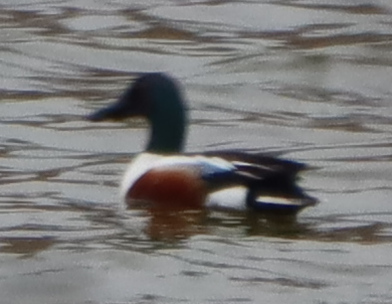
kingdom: Animalia
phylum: Chordata
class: Aves
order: Anseriformes
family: Anatidae
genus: Spatula
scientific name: Spatula clypeata
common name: Northern shoveler
